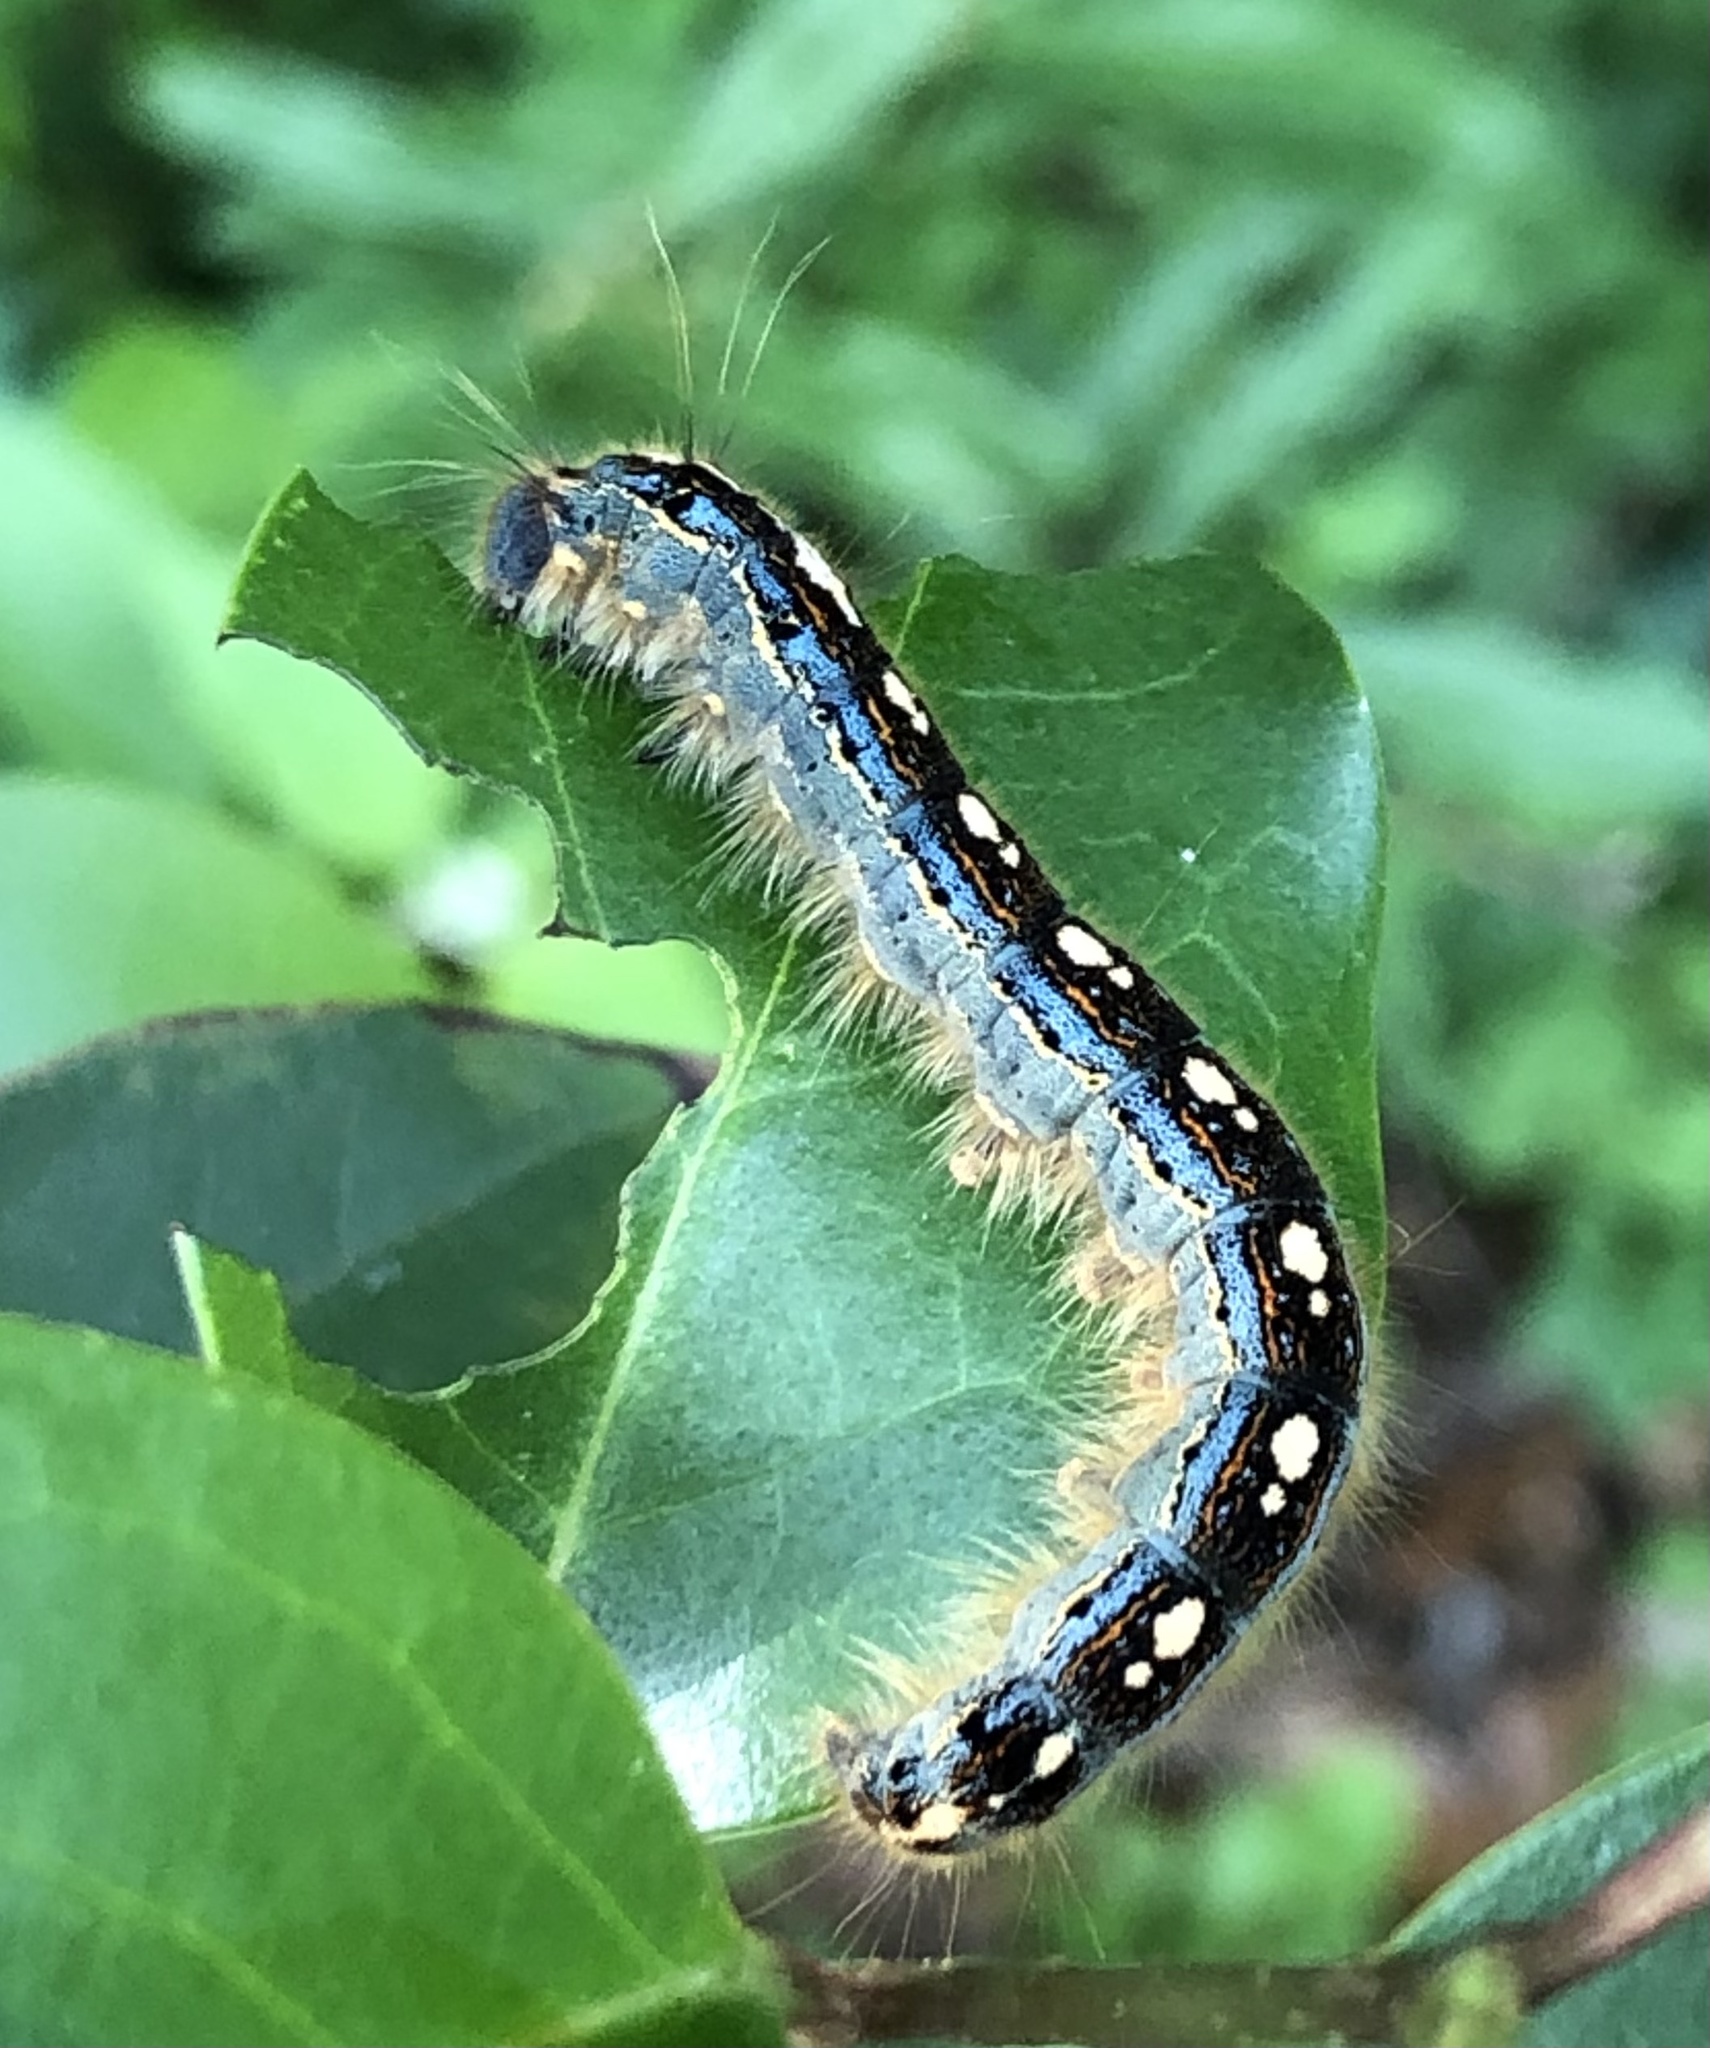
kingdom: Animalia
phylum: Arthropoda
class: Insecta
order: Lepidoptera
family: Lasiocampidae
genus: Malacosoma
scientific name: Malacosoma disstria
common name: Forest tent caterpillar
